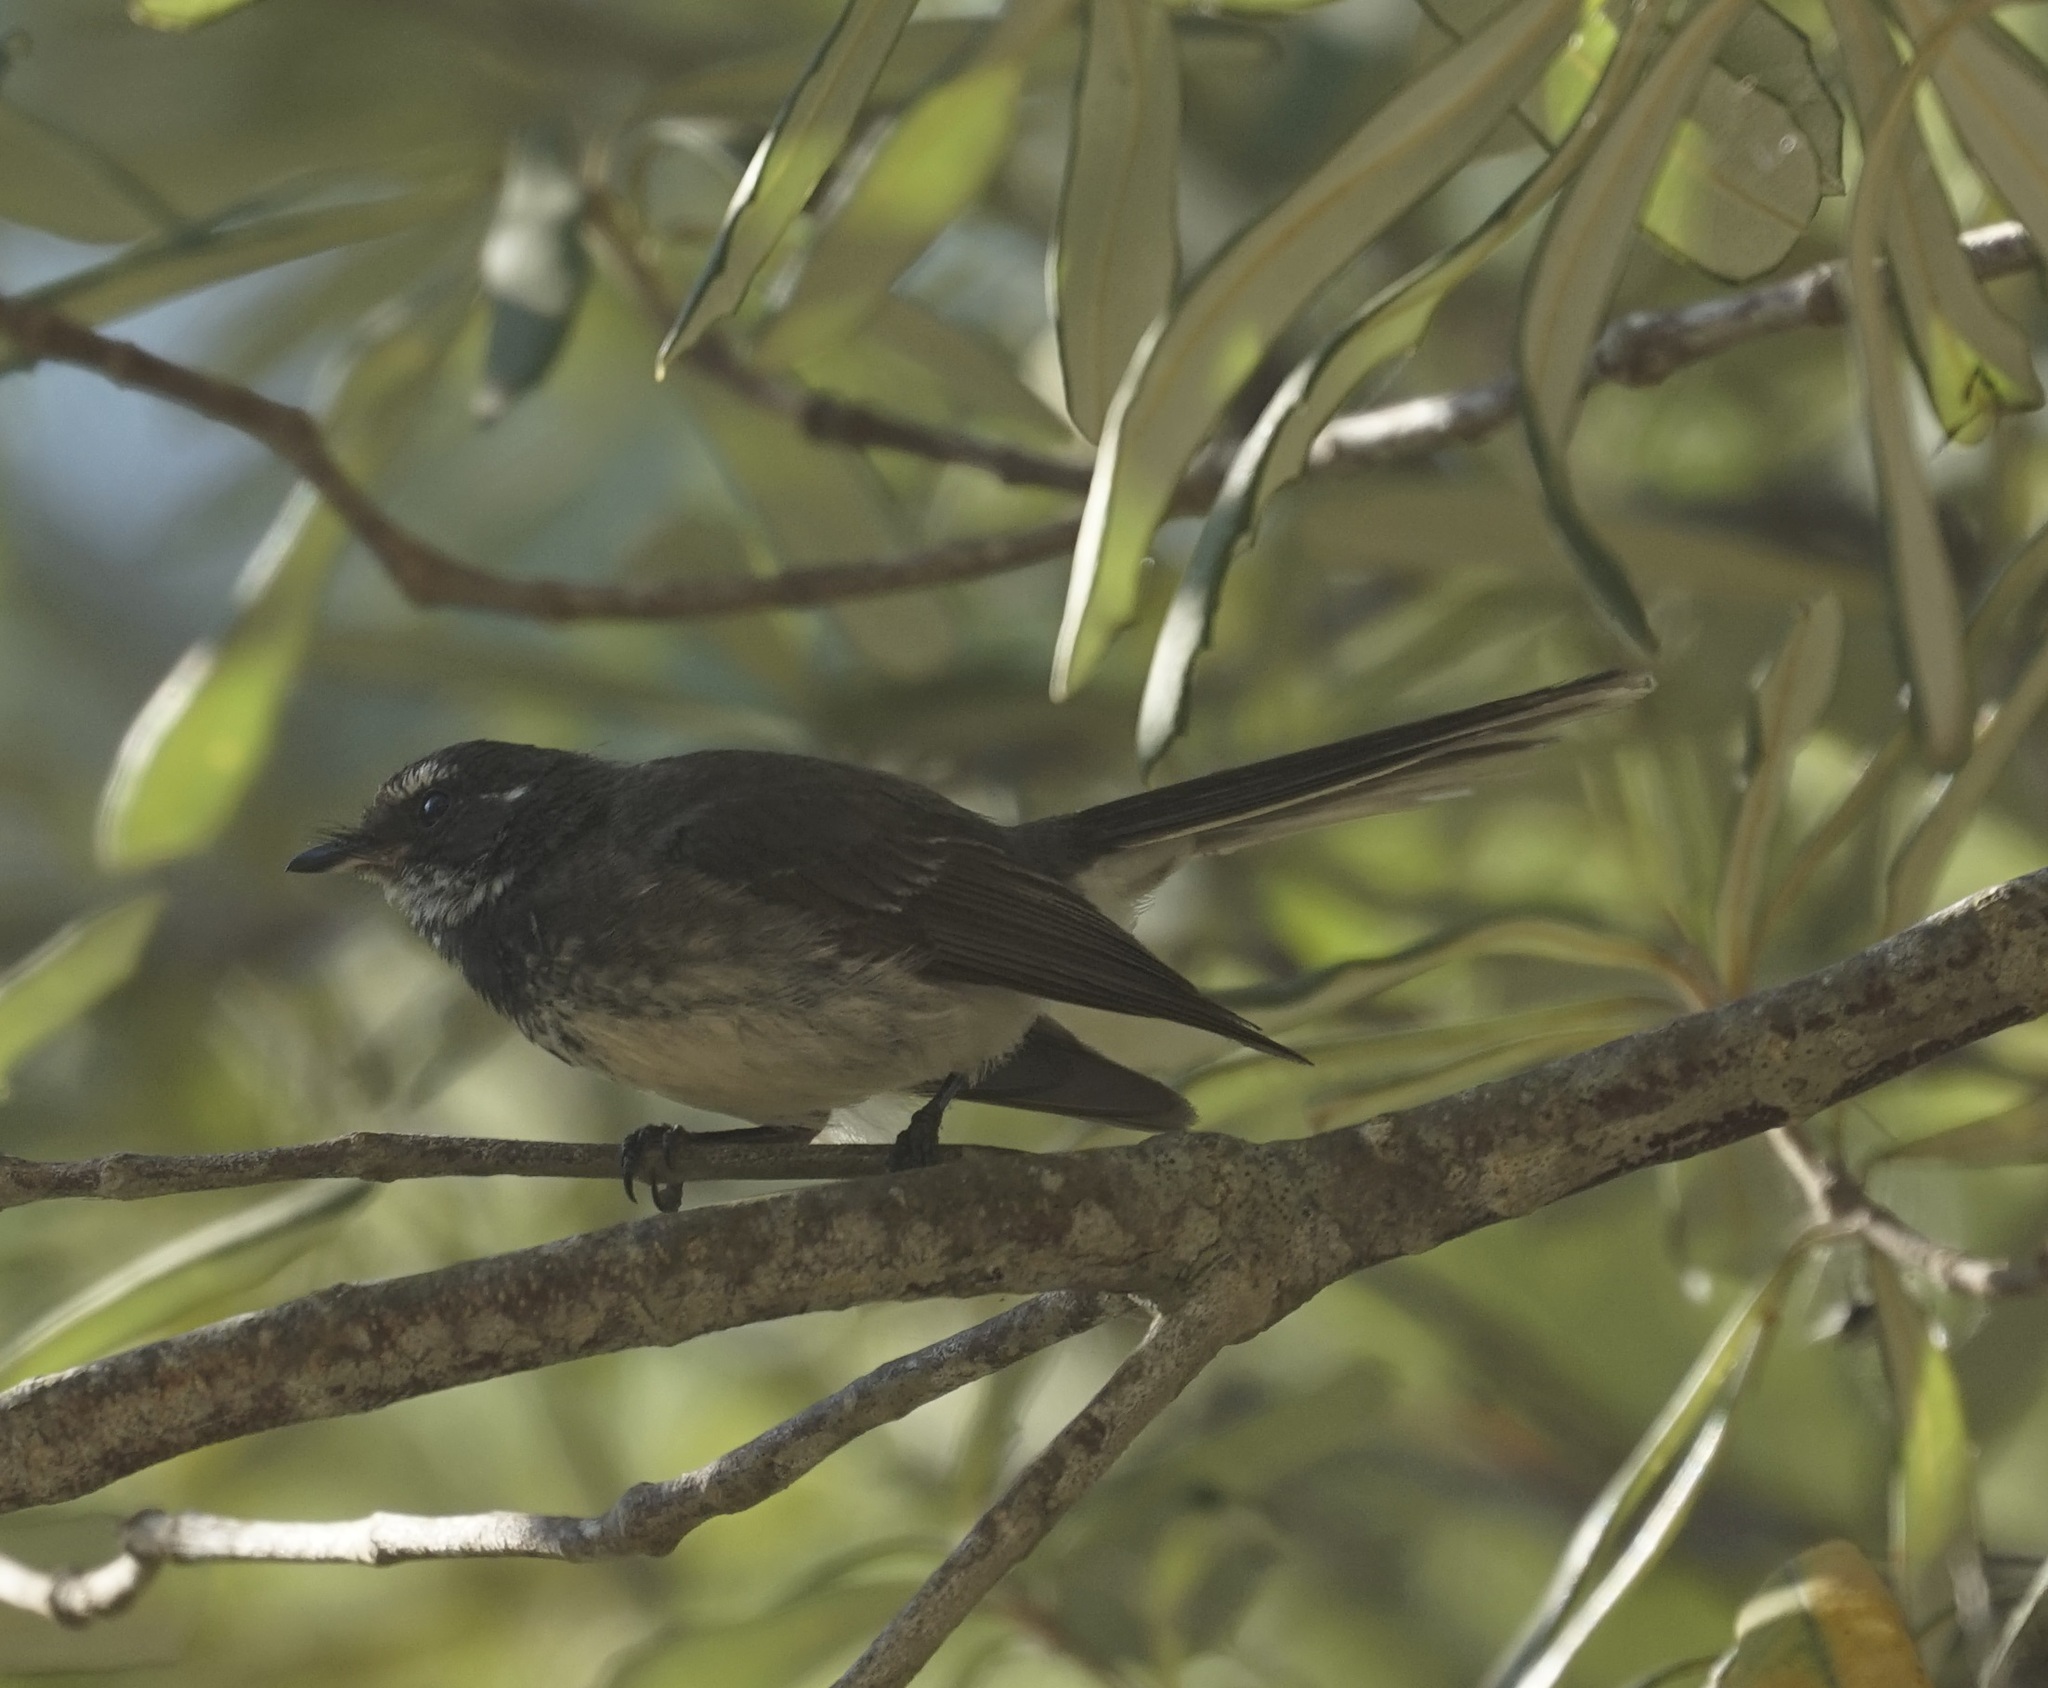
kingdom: Animalia
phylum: Chordata
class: Aves
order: Passeriformes
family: Rhipiduridae
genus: Rhipidura
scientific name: Rhipidura albiscapa
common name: Grey fantail
